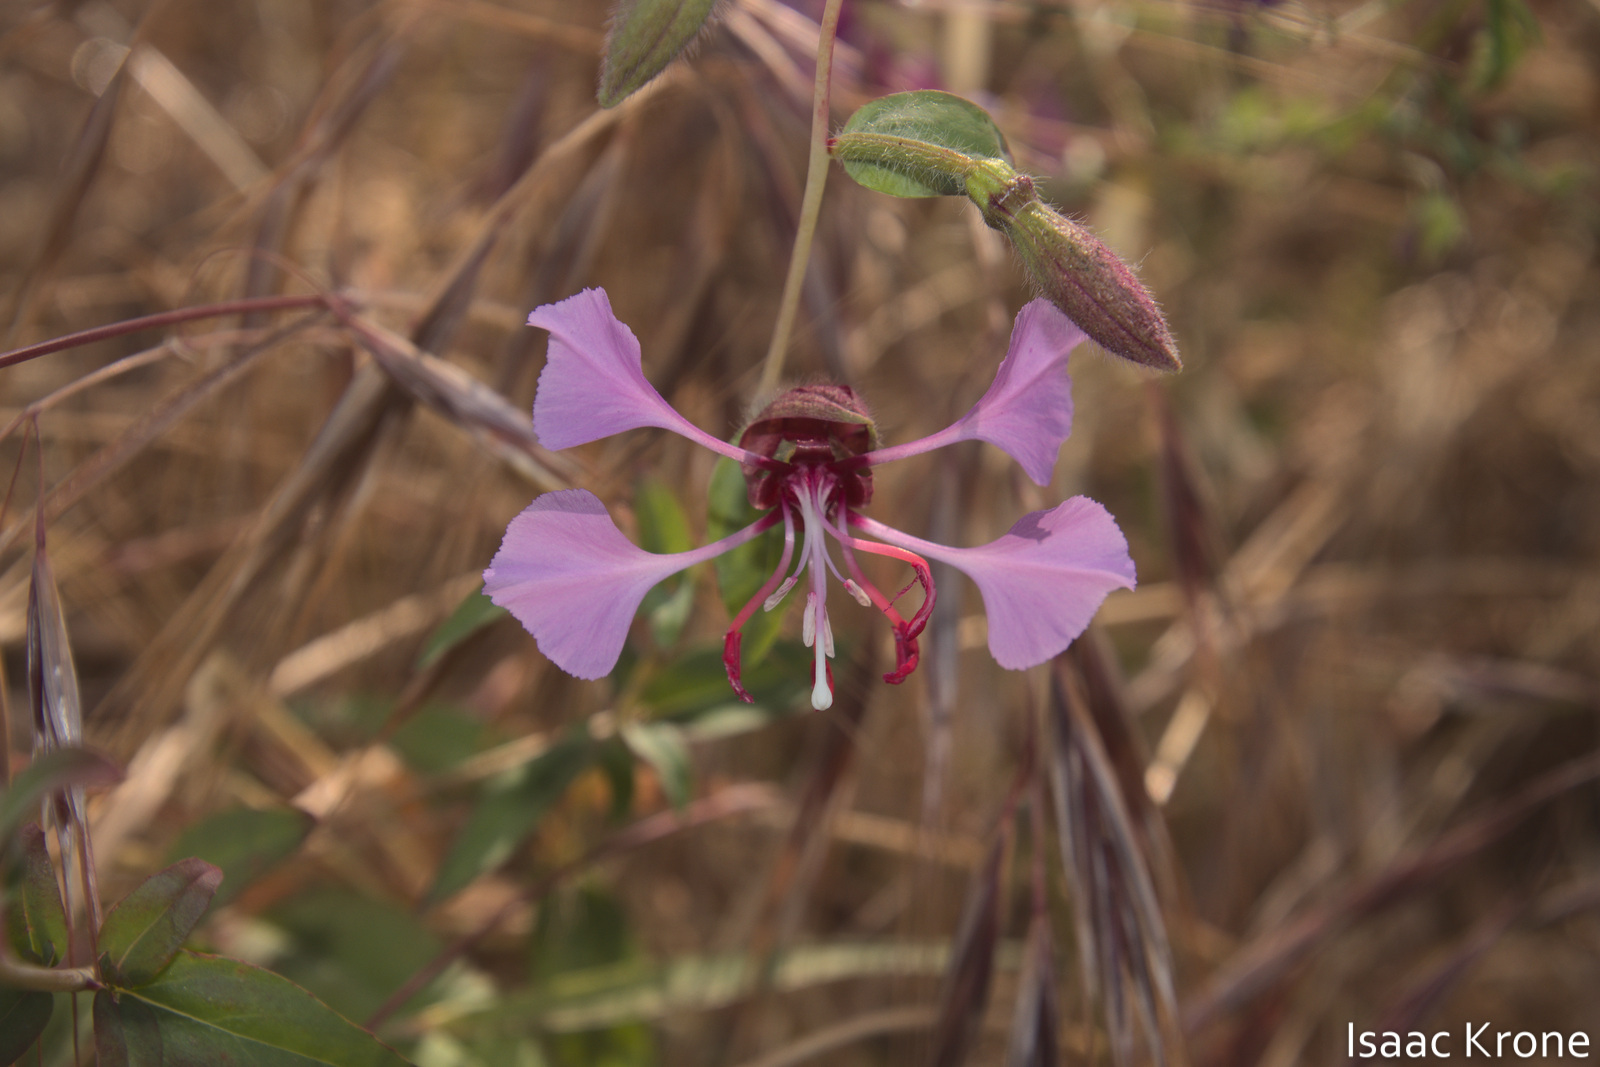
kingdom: Plantae
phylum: Tracheophyta
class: Magnoliopsida
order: Myrtales
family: Onagraceae
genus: Clarkia
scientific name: Clarkia unguiculata
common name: Clarkia
